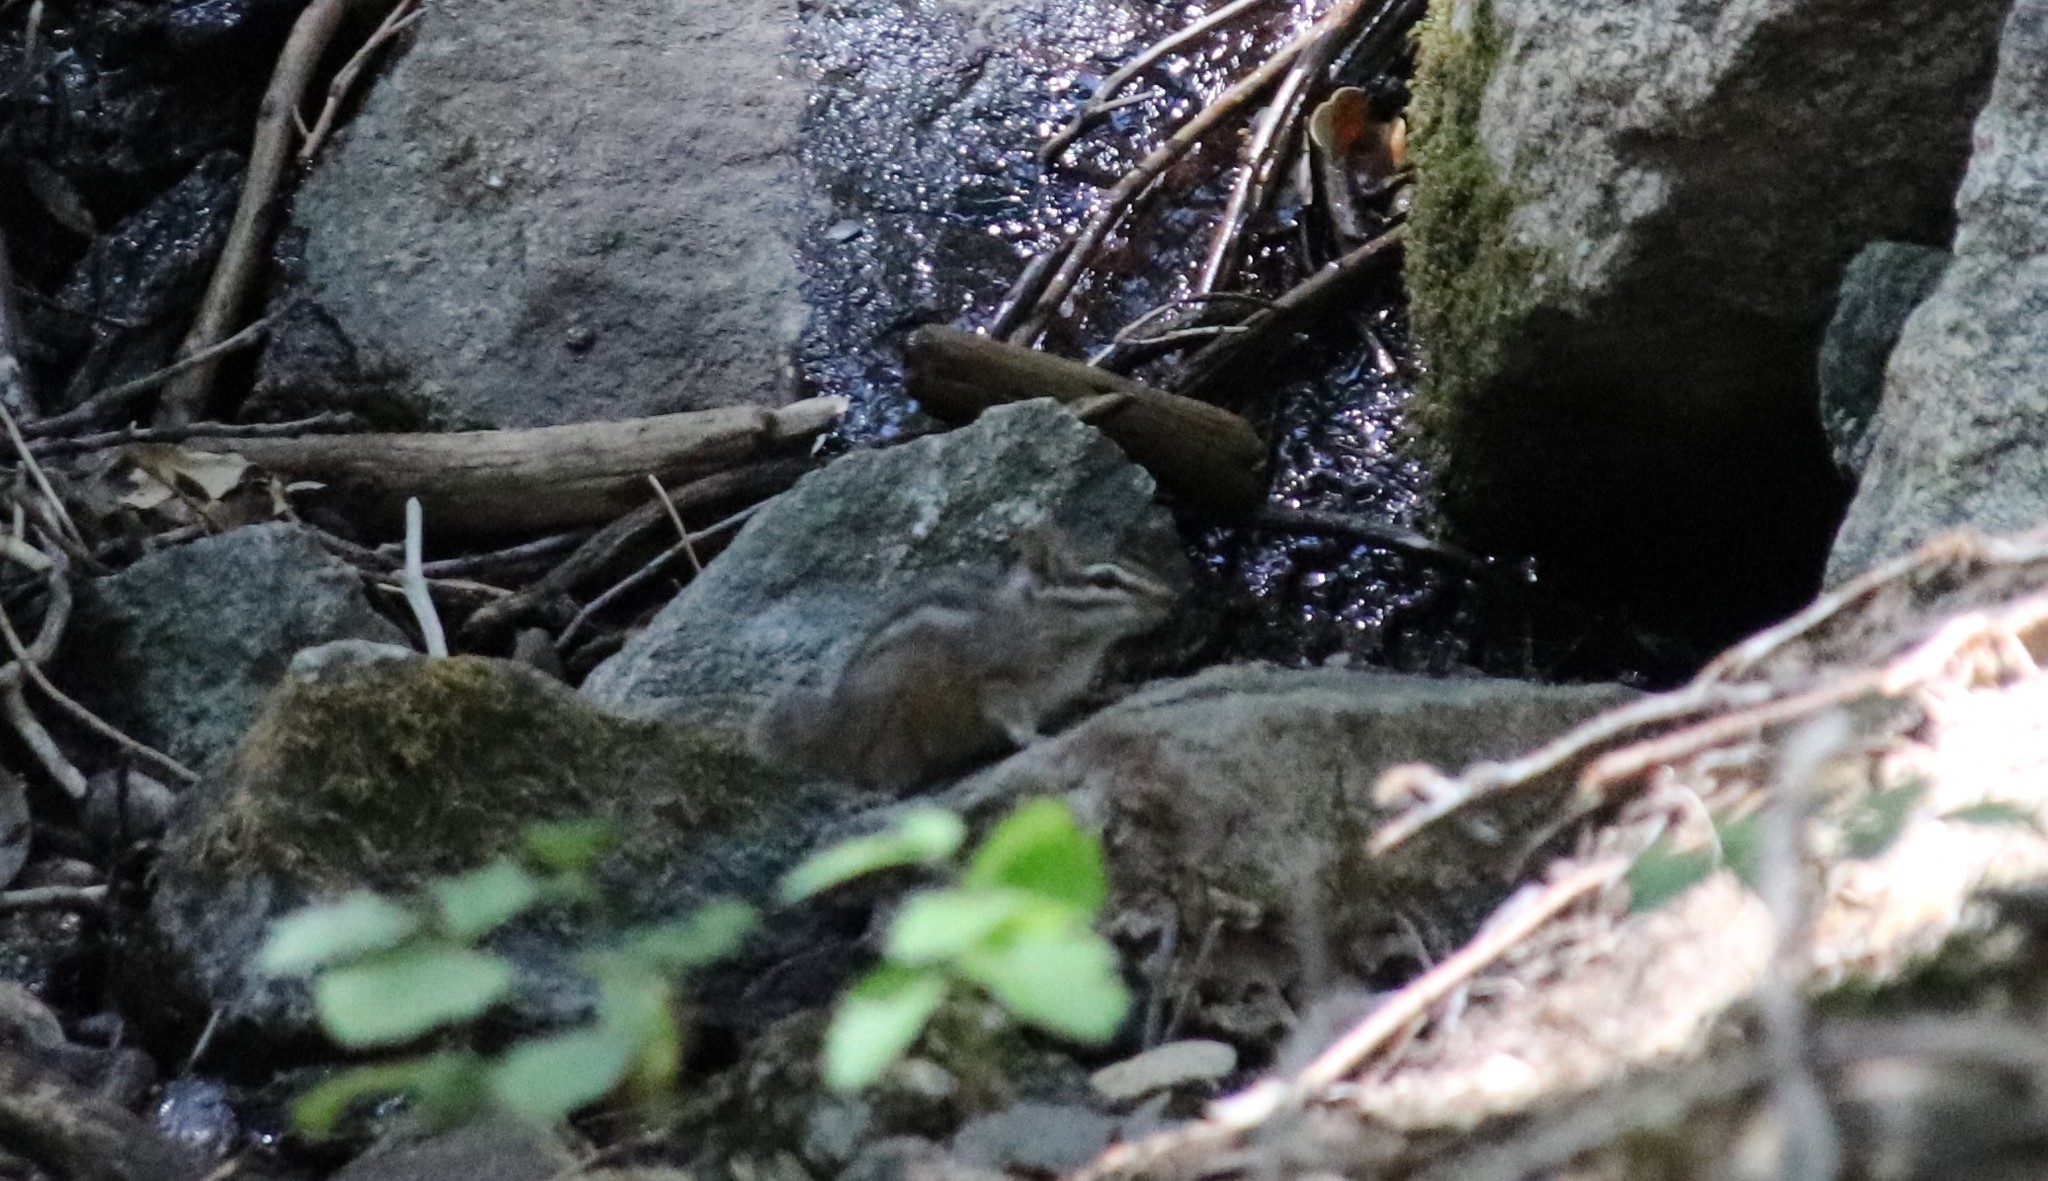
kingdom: Animalia
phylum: Chordata
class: Mammalia
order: Rodentia
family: Sciuridae
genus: Tamias
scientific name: Tamias merriami
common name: Merriam's chipmunk
